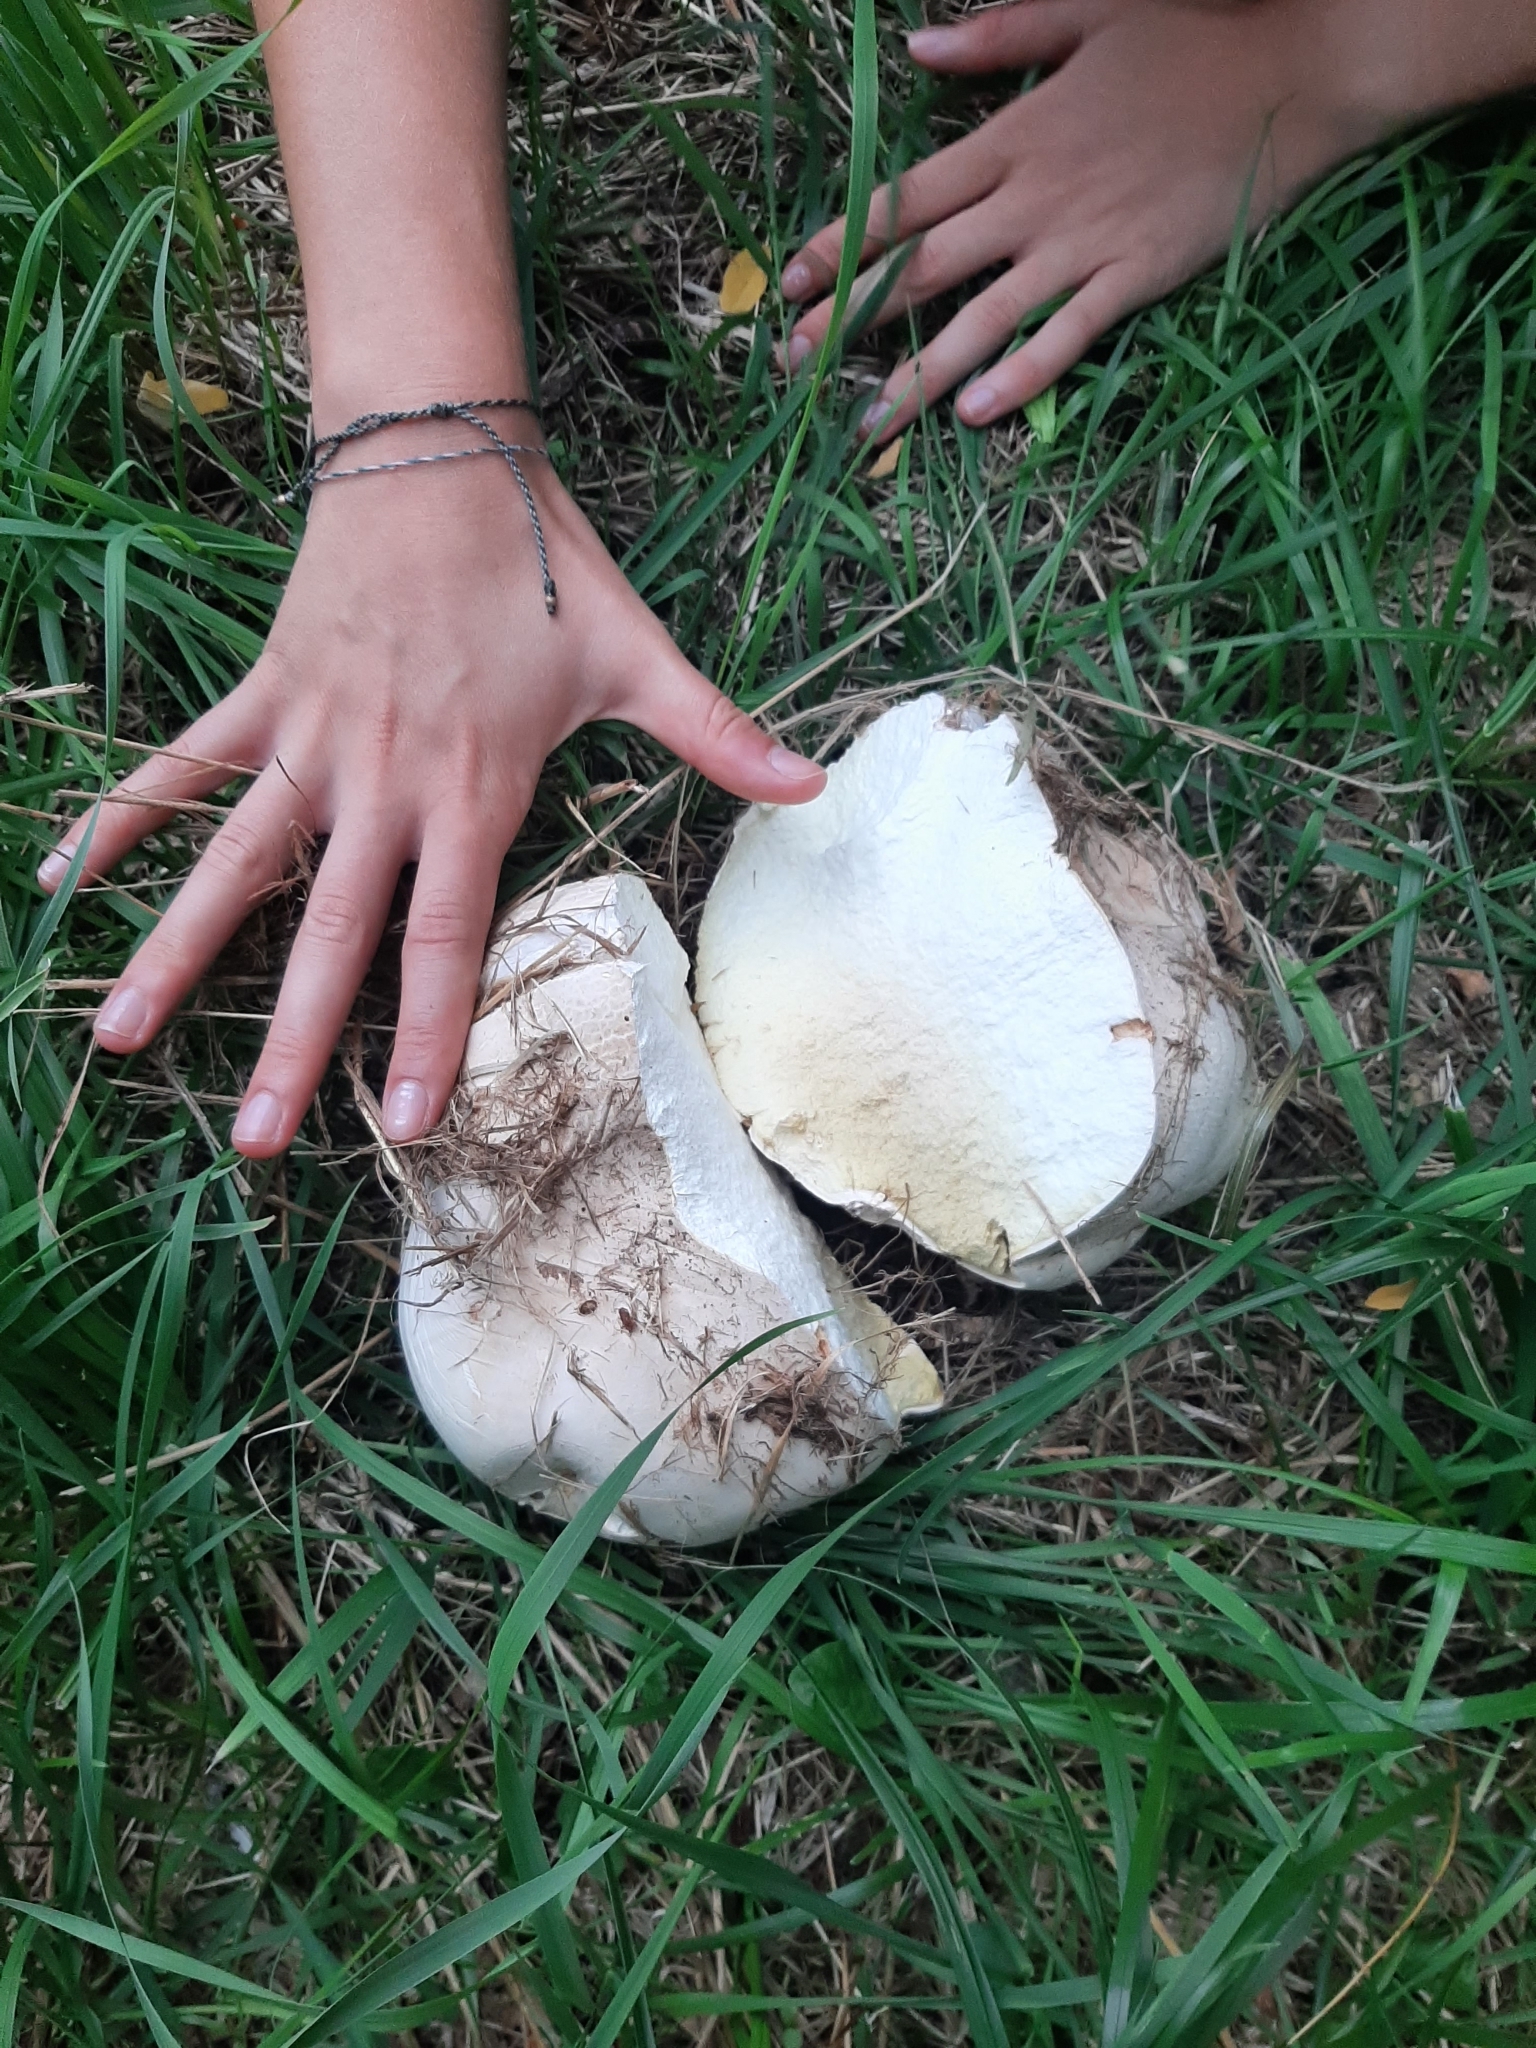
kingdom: Fungi
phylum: Basidiomycota
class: Agaricomycetes
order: Agaricales
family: Lycoperdaceae
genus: Calvatia
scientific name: Calvatia gigantea
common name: Giant puffball
